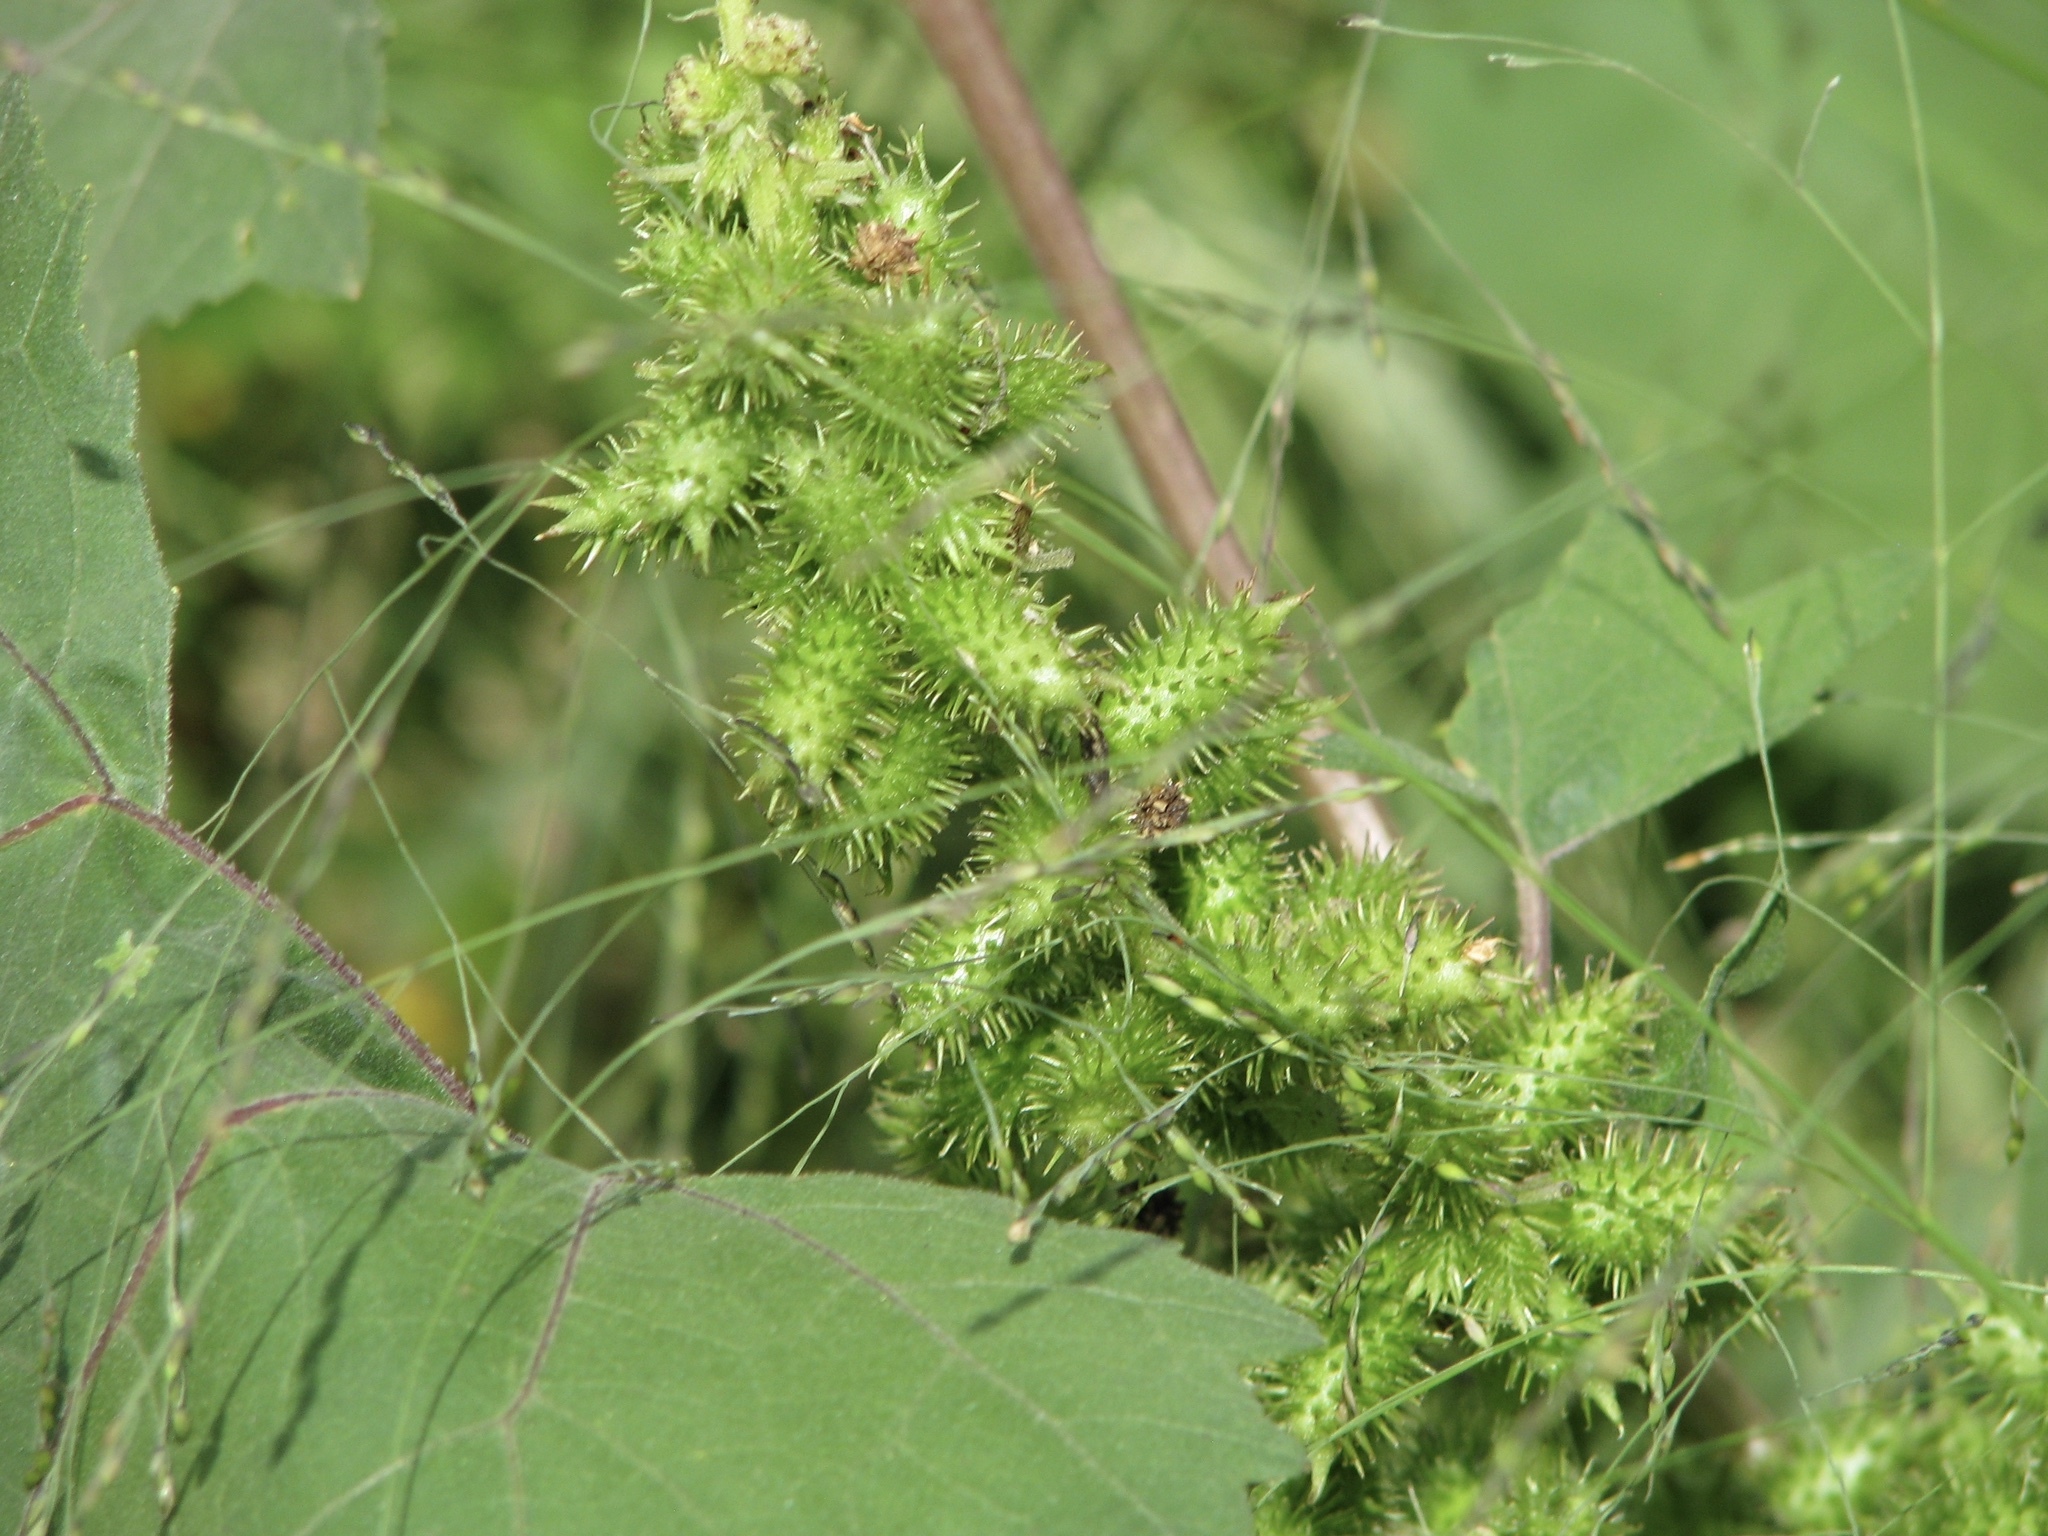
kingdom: Plantae
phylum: Tracheophyta
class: Magnoliopsida
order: Asterales
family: Asteraceae
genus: Xanthium
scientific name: Xanthium strumarium
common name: Rough cocklebur
